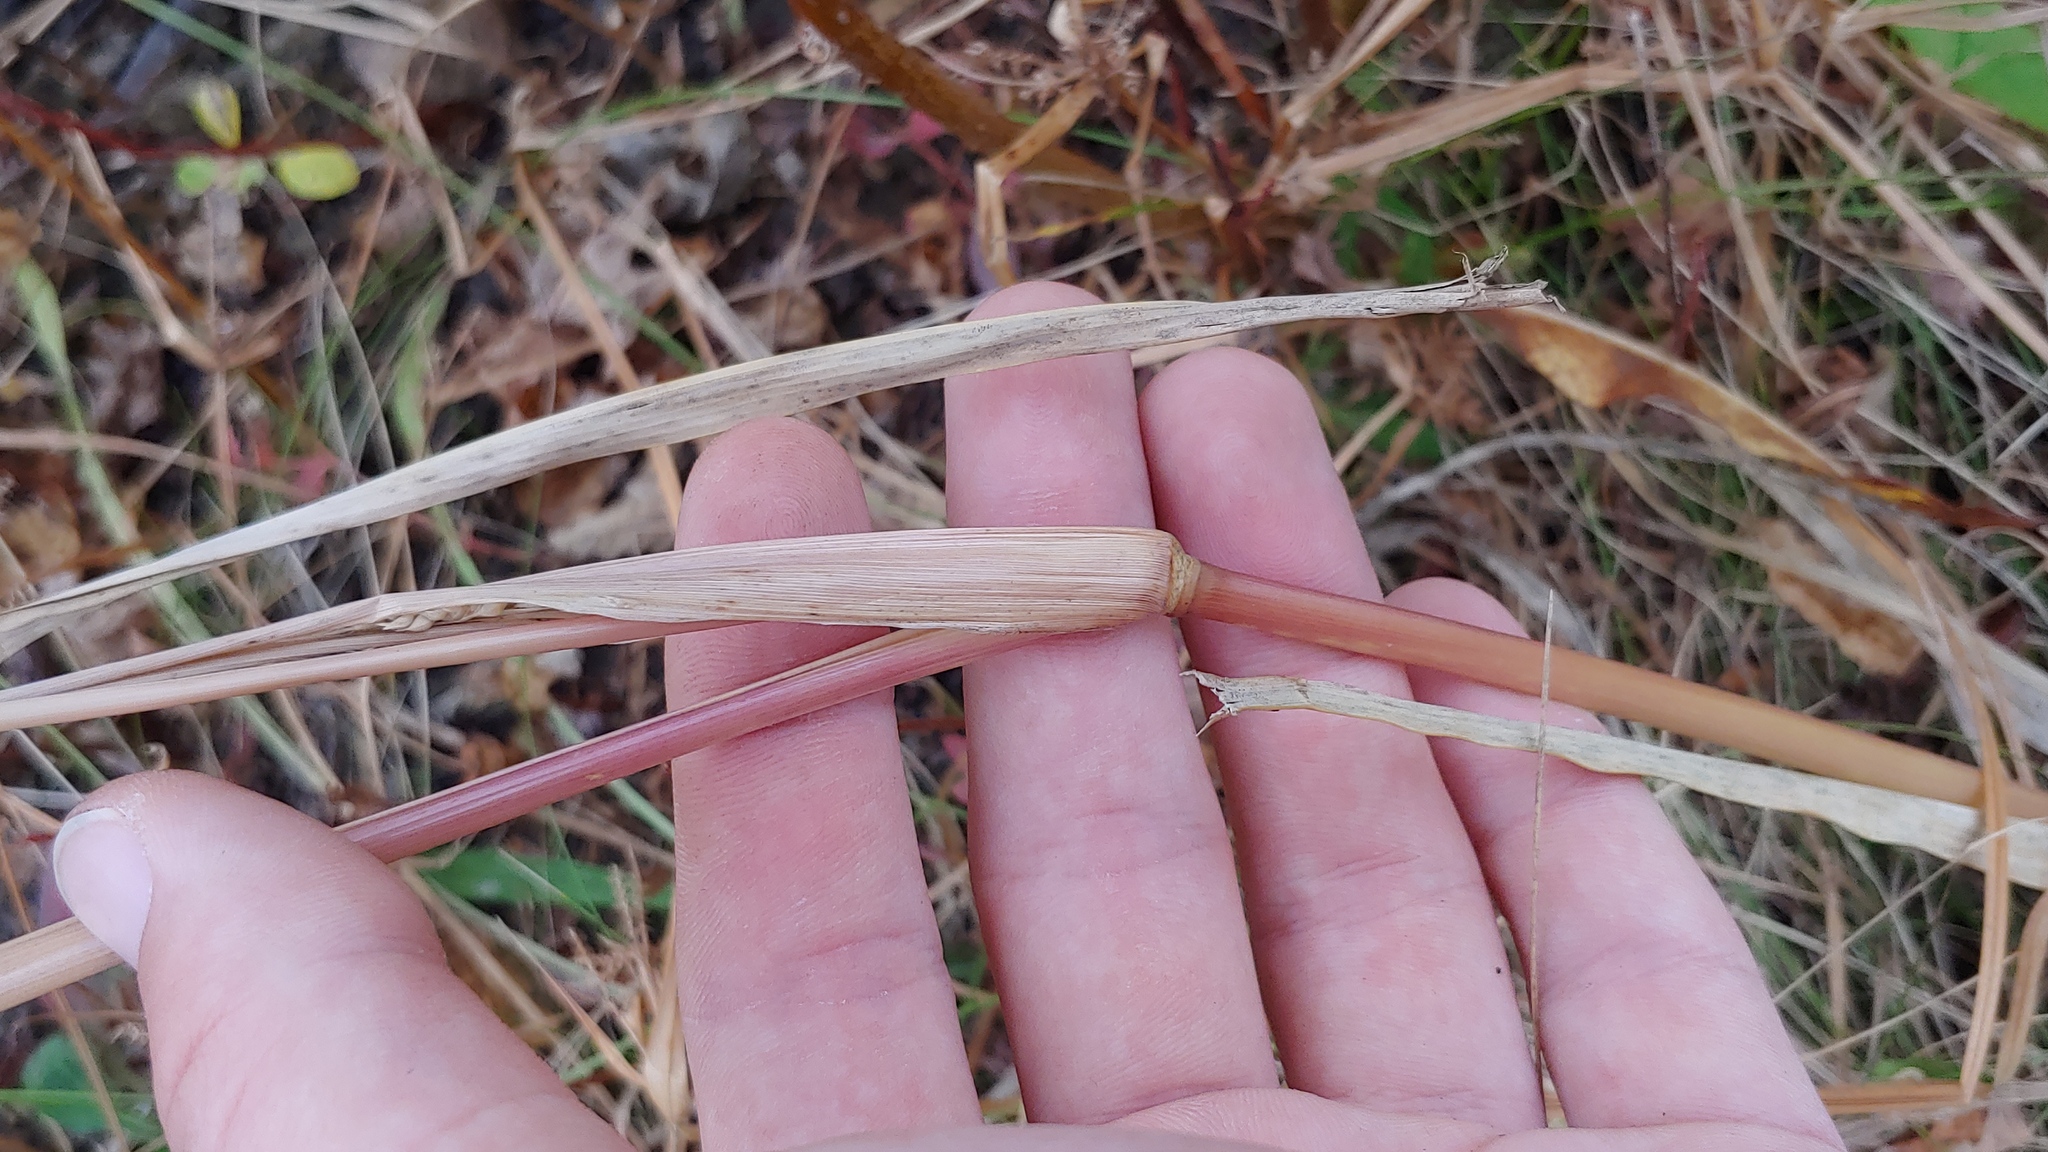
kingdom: Plantae
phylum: Tracheophyta
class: Liliopsida
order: Poales
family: Poaceae
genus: Echinochloa
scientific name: Echinochloa muricata
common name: American barnyard grass
